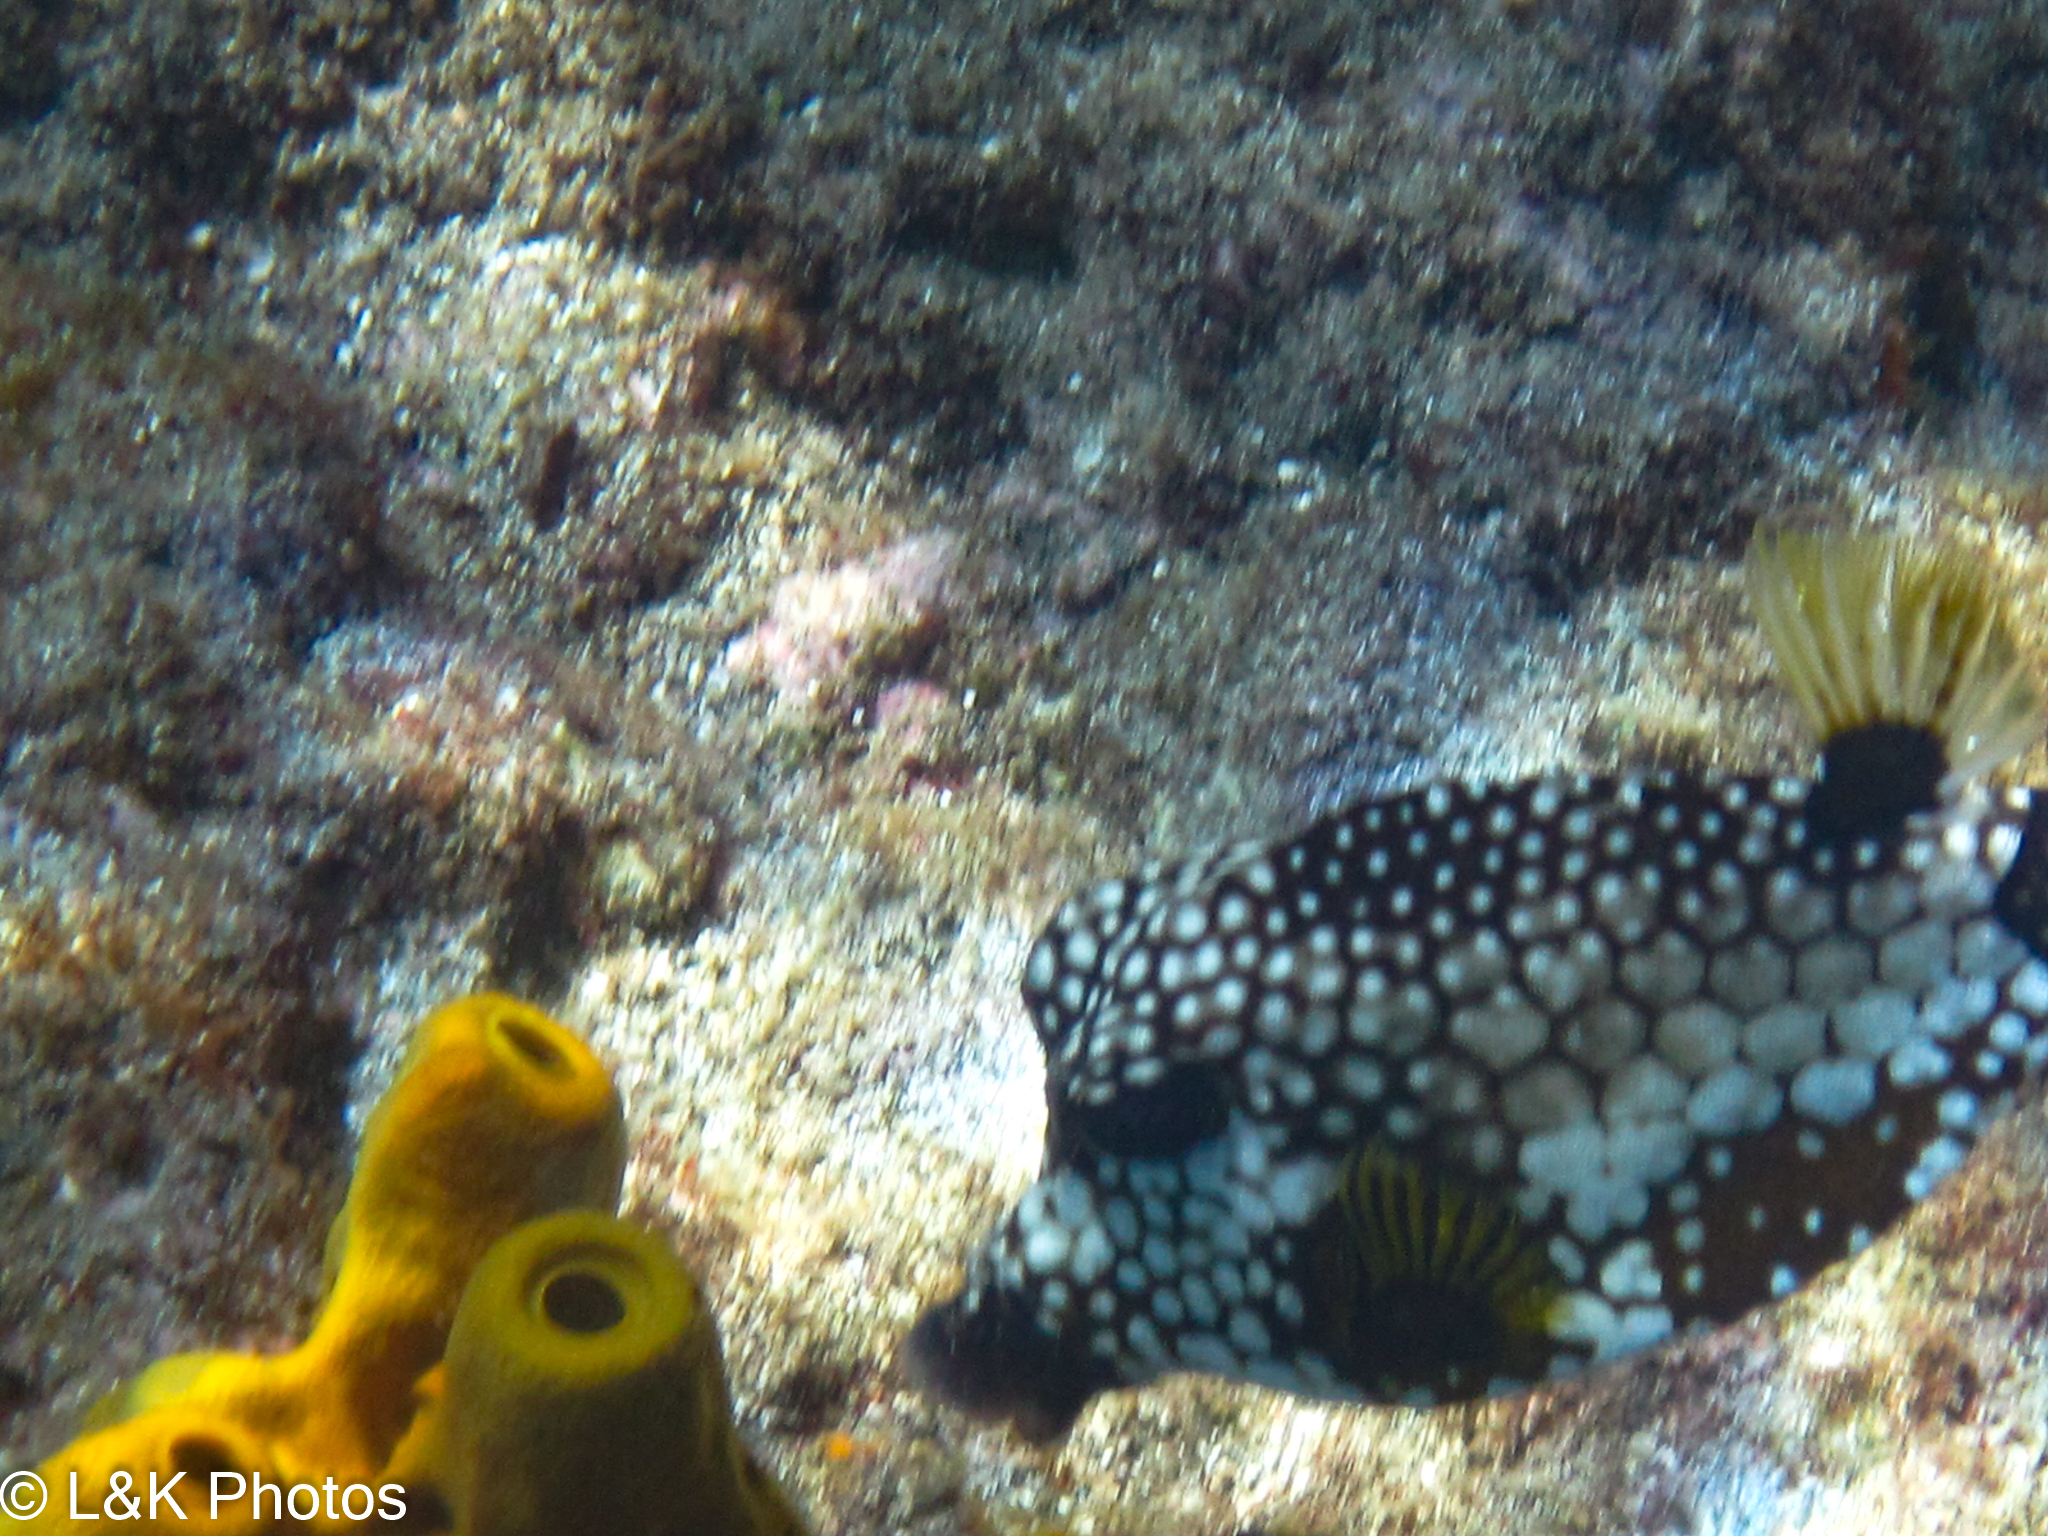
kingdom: Animalia
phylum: Chordata
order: Tetraodontiformes
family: Ostraciidae
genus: Lactophrys
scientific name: Lactophrys triqueter
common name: Smooth trunkfish
